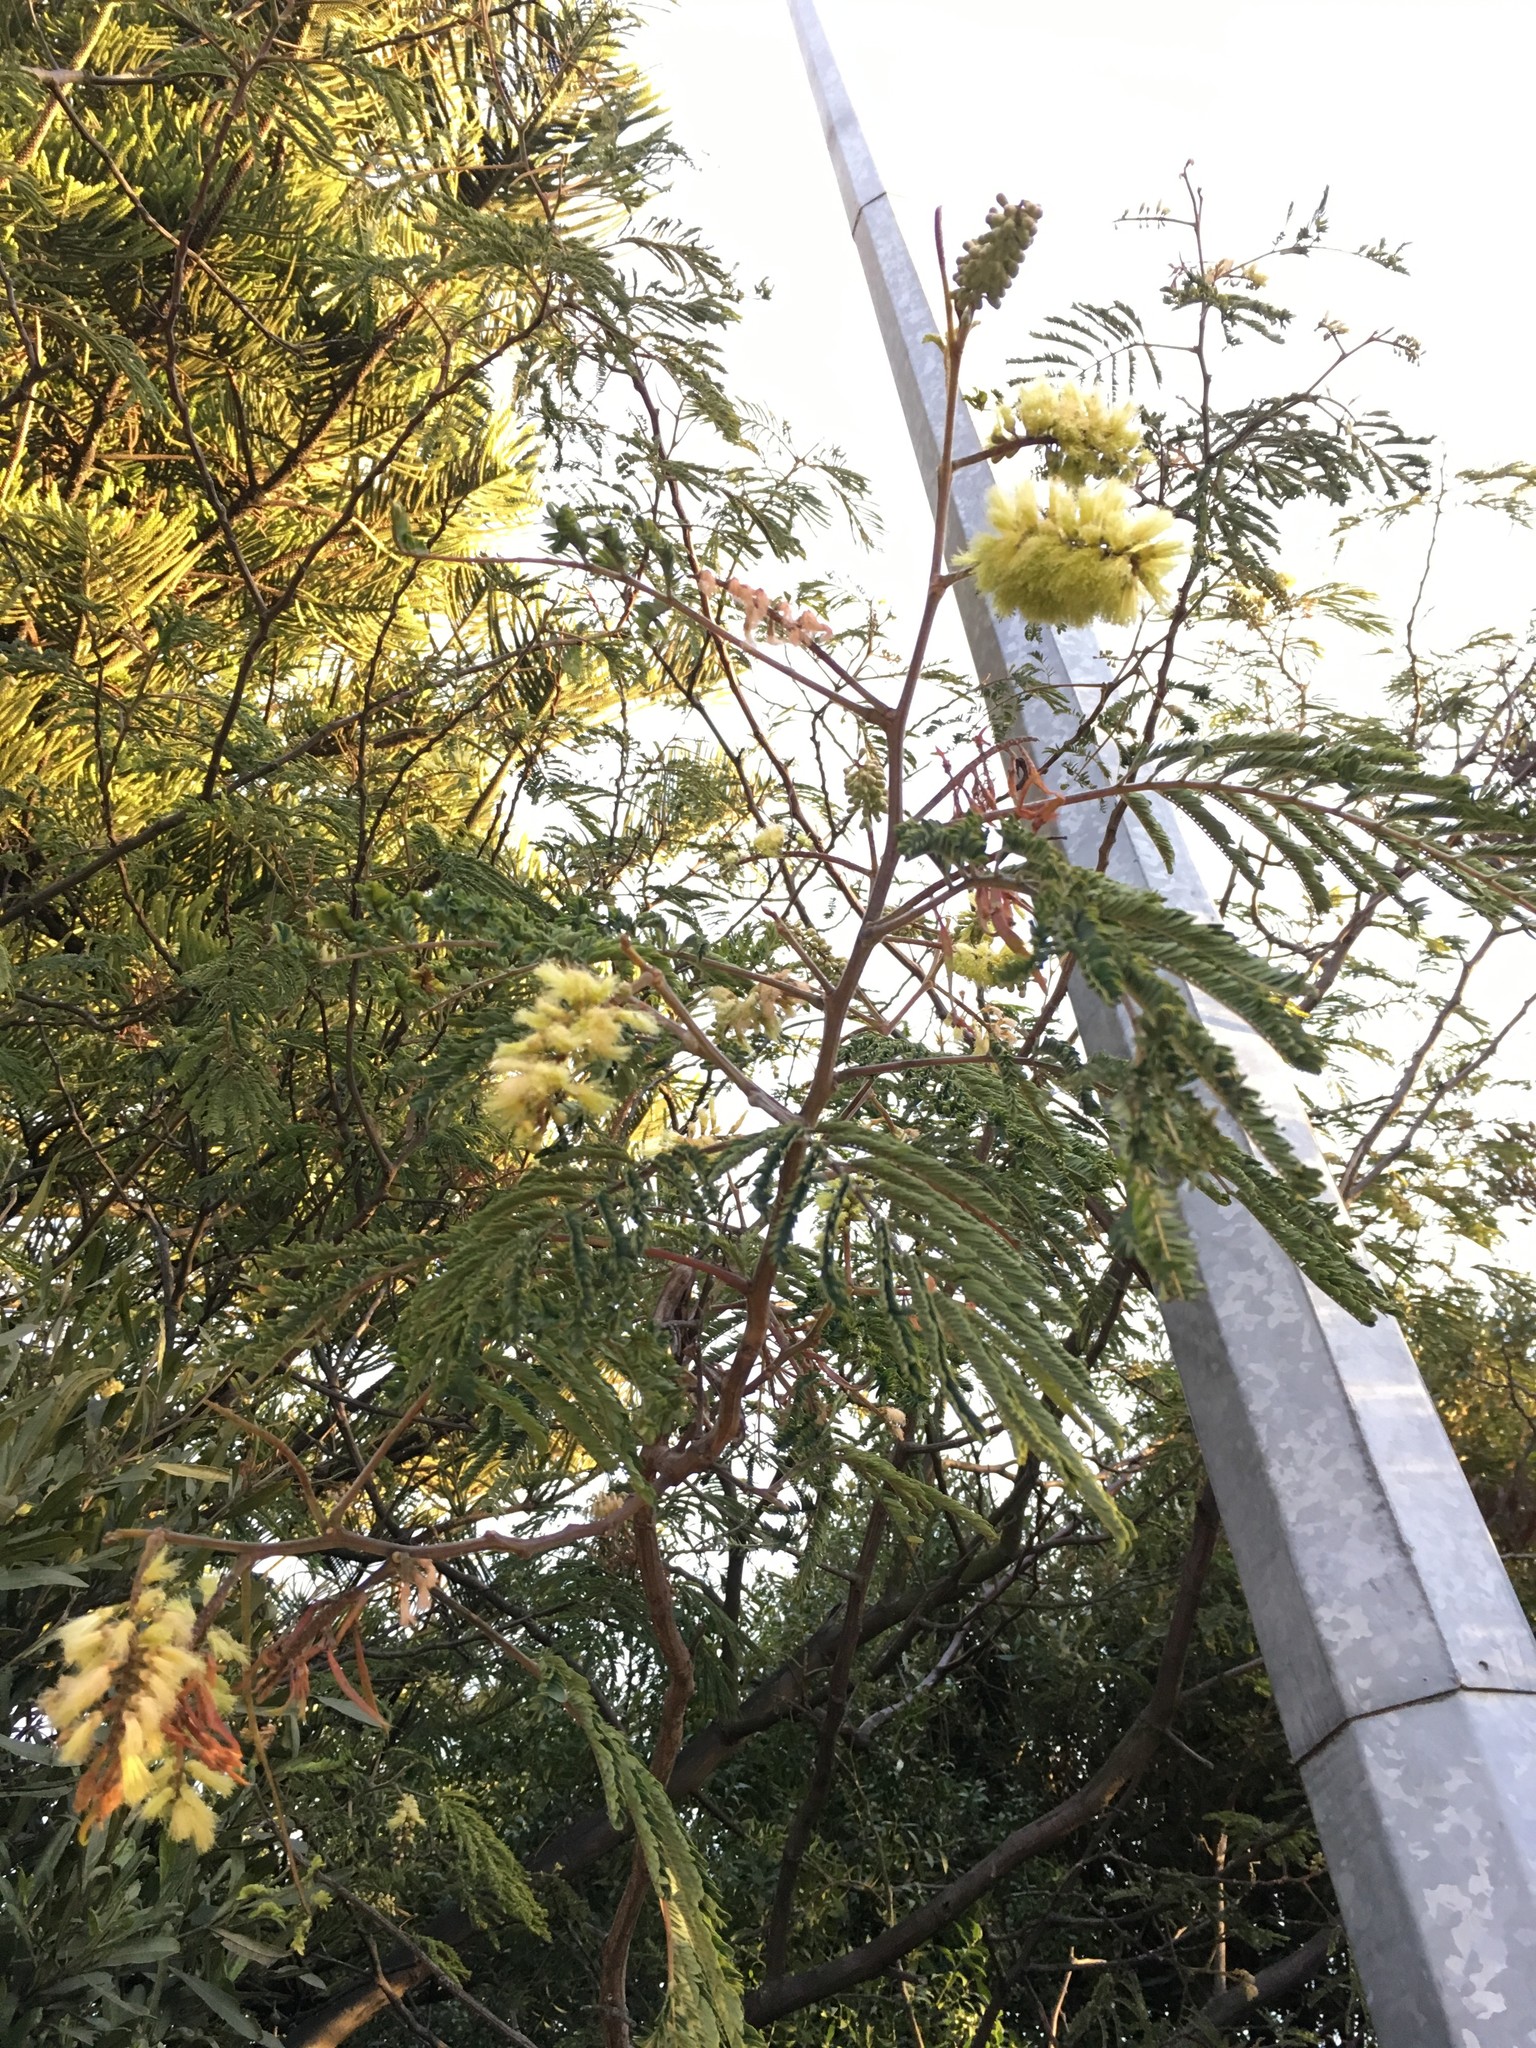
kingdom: Plantae
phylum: Tracheophyta
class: Magnoliopsida
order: Fabales
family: Fabaceae
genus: Paraserianthes
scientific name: Paraserianthes lophantha
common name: Plume albizia
